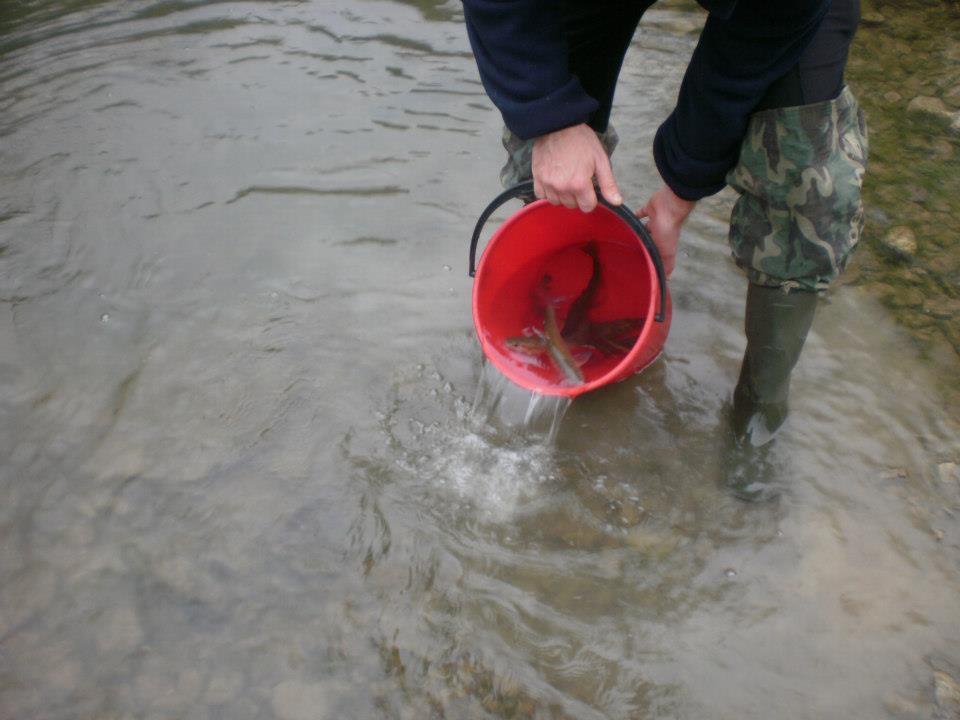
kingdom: Animalia
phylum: Chordata
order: Salmoniformes
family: Salmonidae
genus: Salmo
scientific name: Salmo trutta
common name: Brown trout
